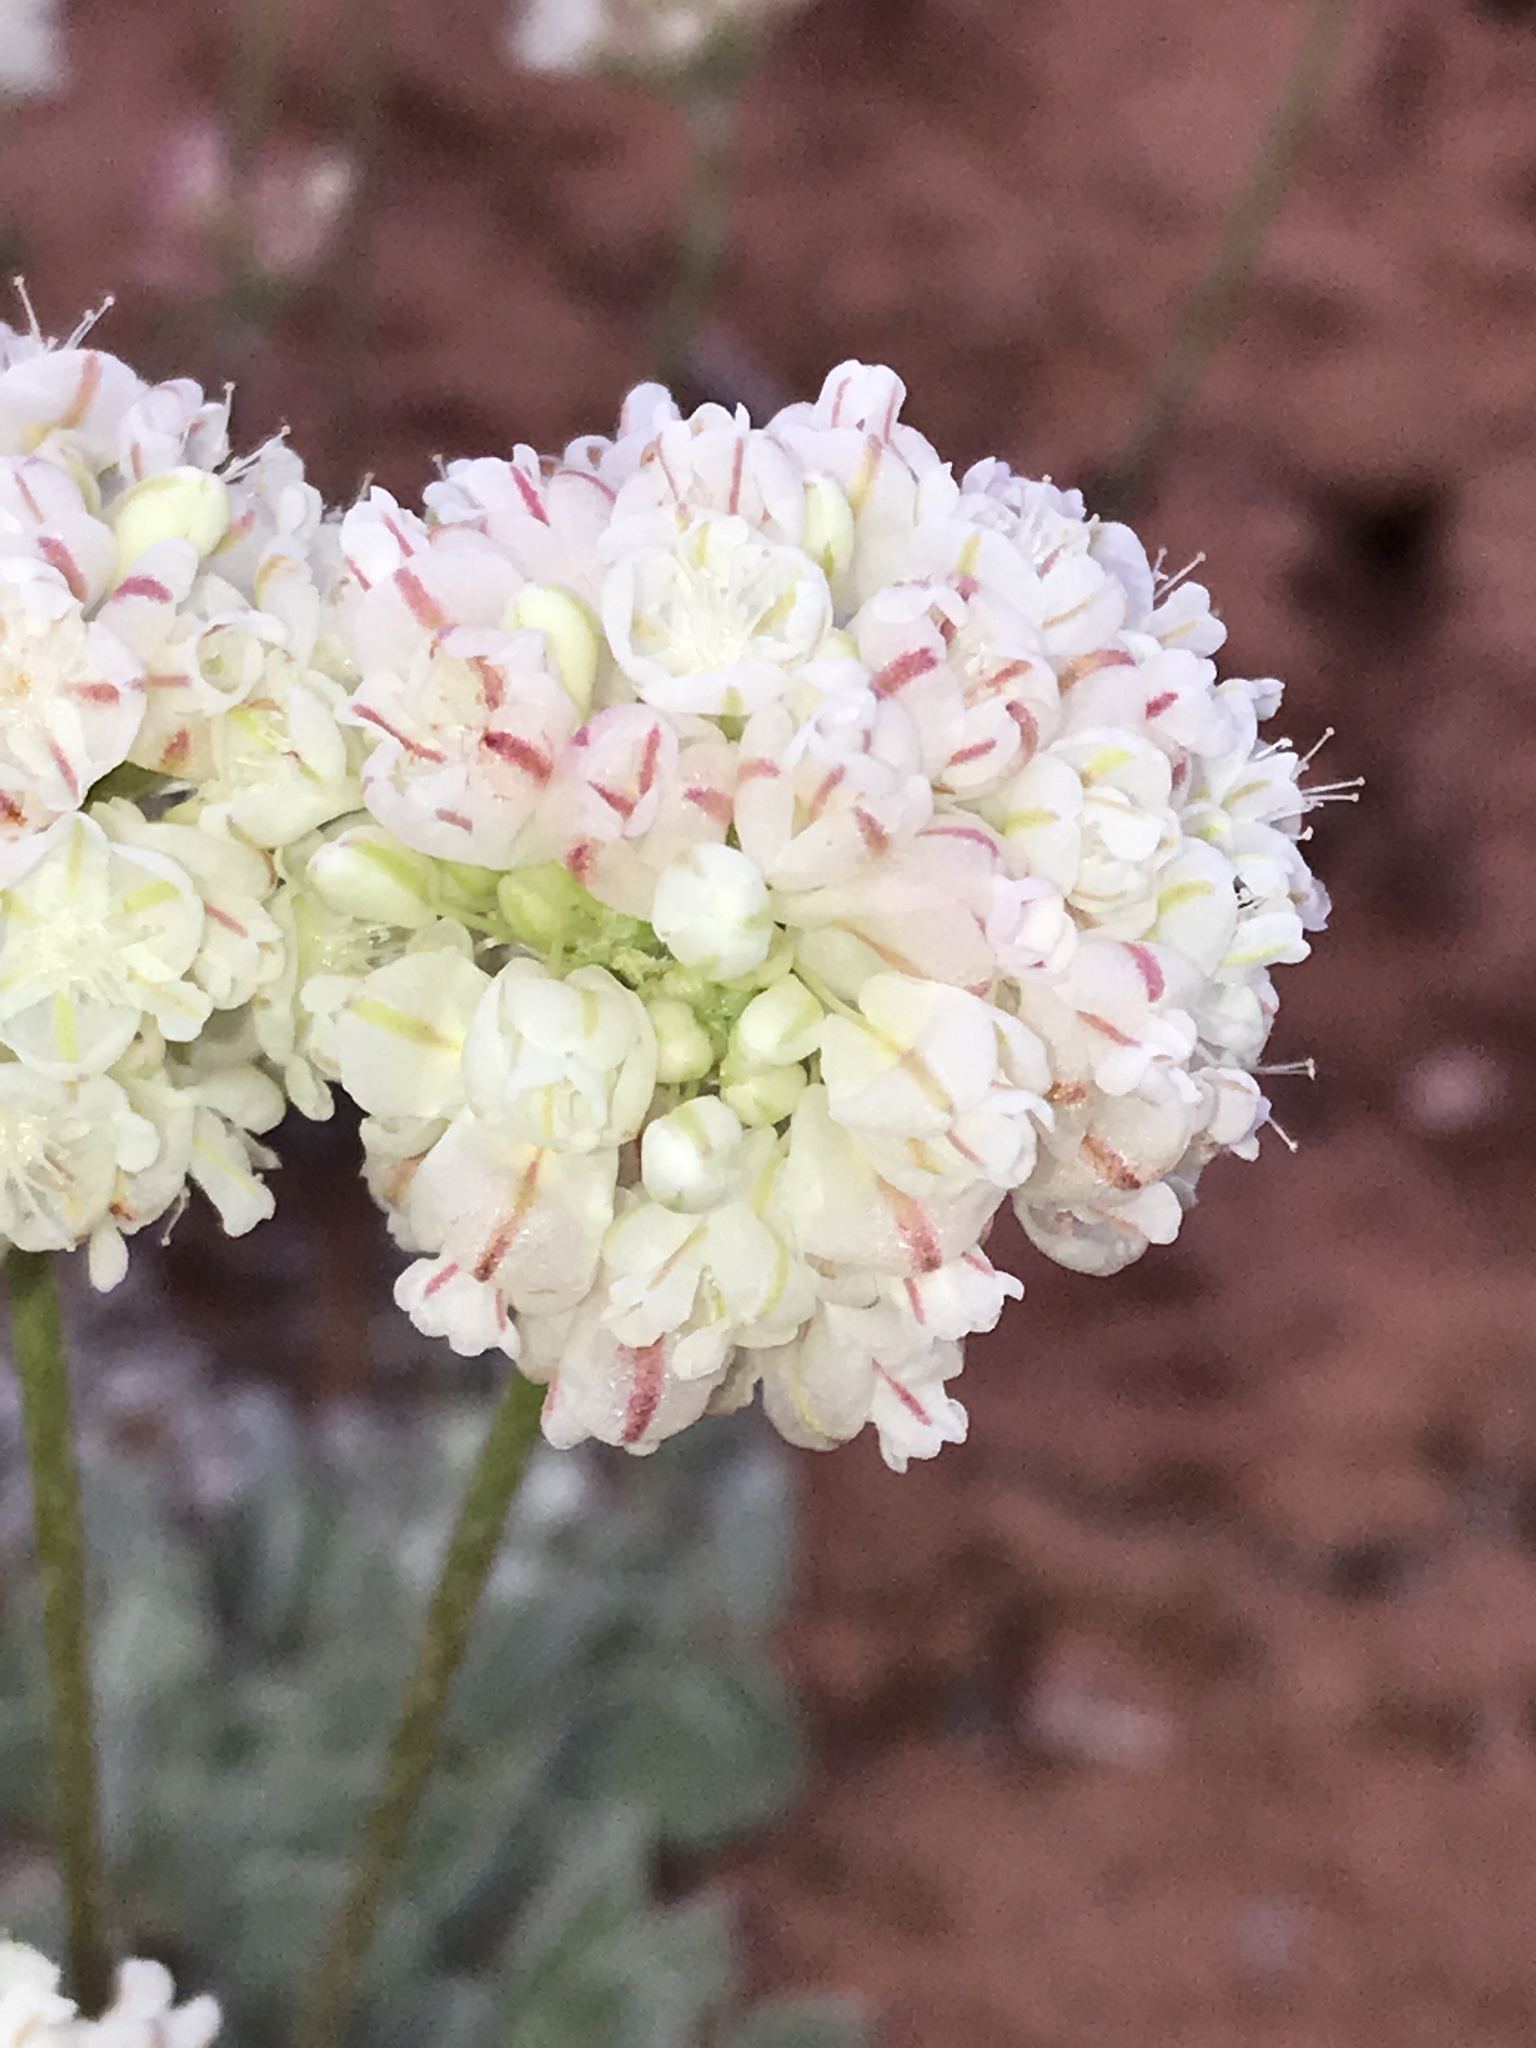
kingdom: Plantae
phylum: Tracheophyta
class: Magnoliopsida
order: Caryophyllales
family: Polygonaceae
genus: Eriogonum
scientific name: Eriogonum ovalifolium
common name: Cushion buckwheat
